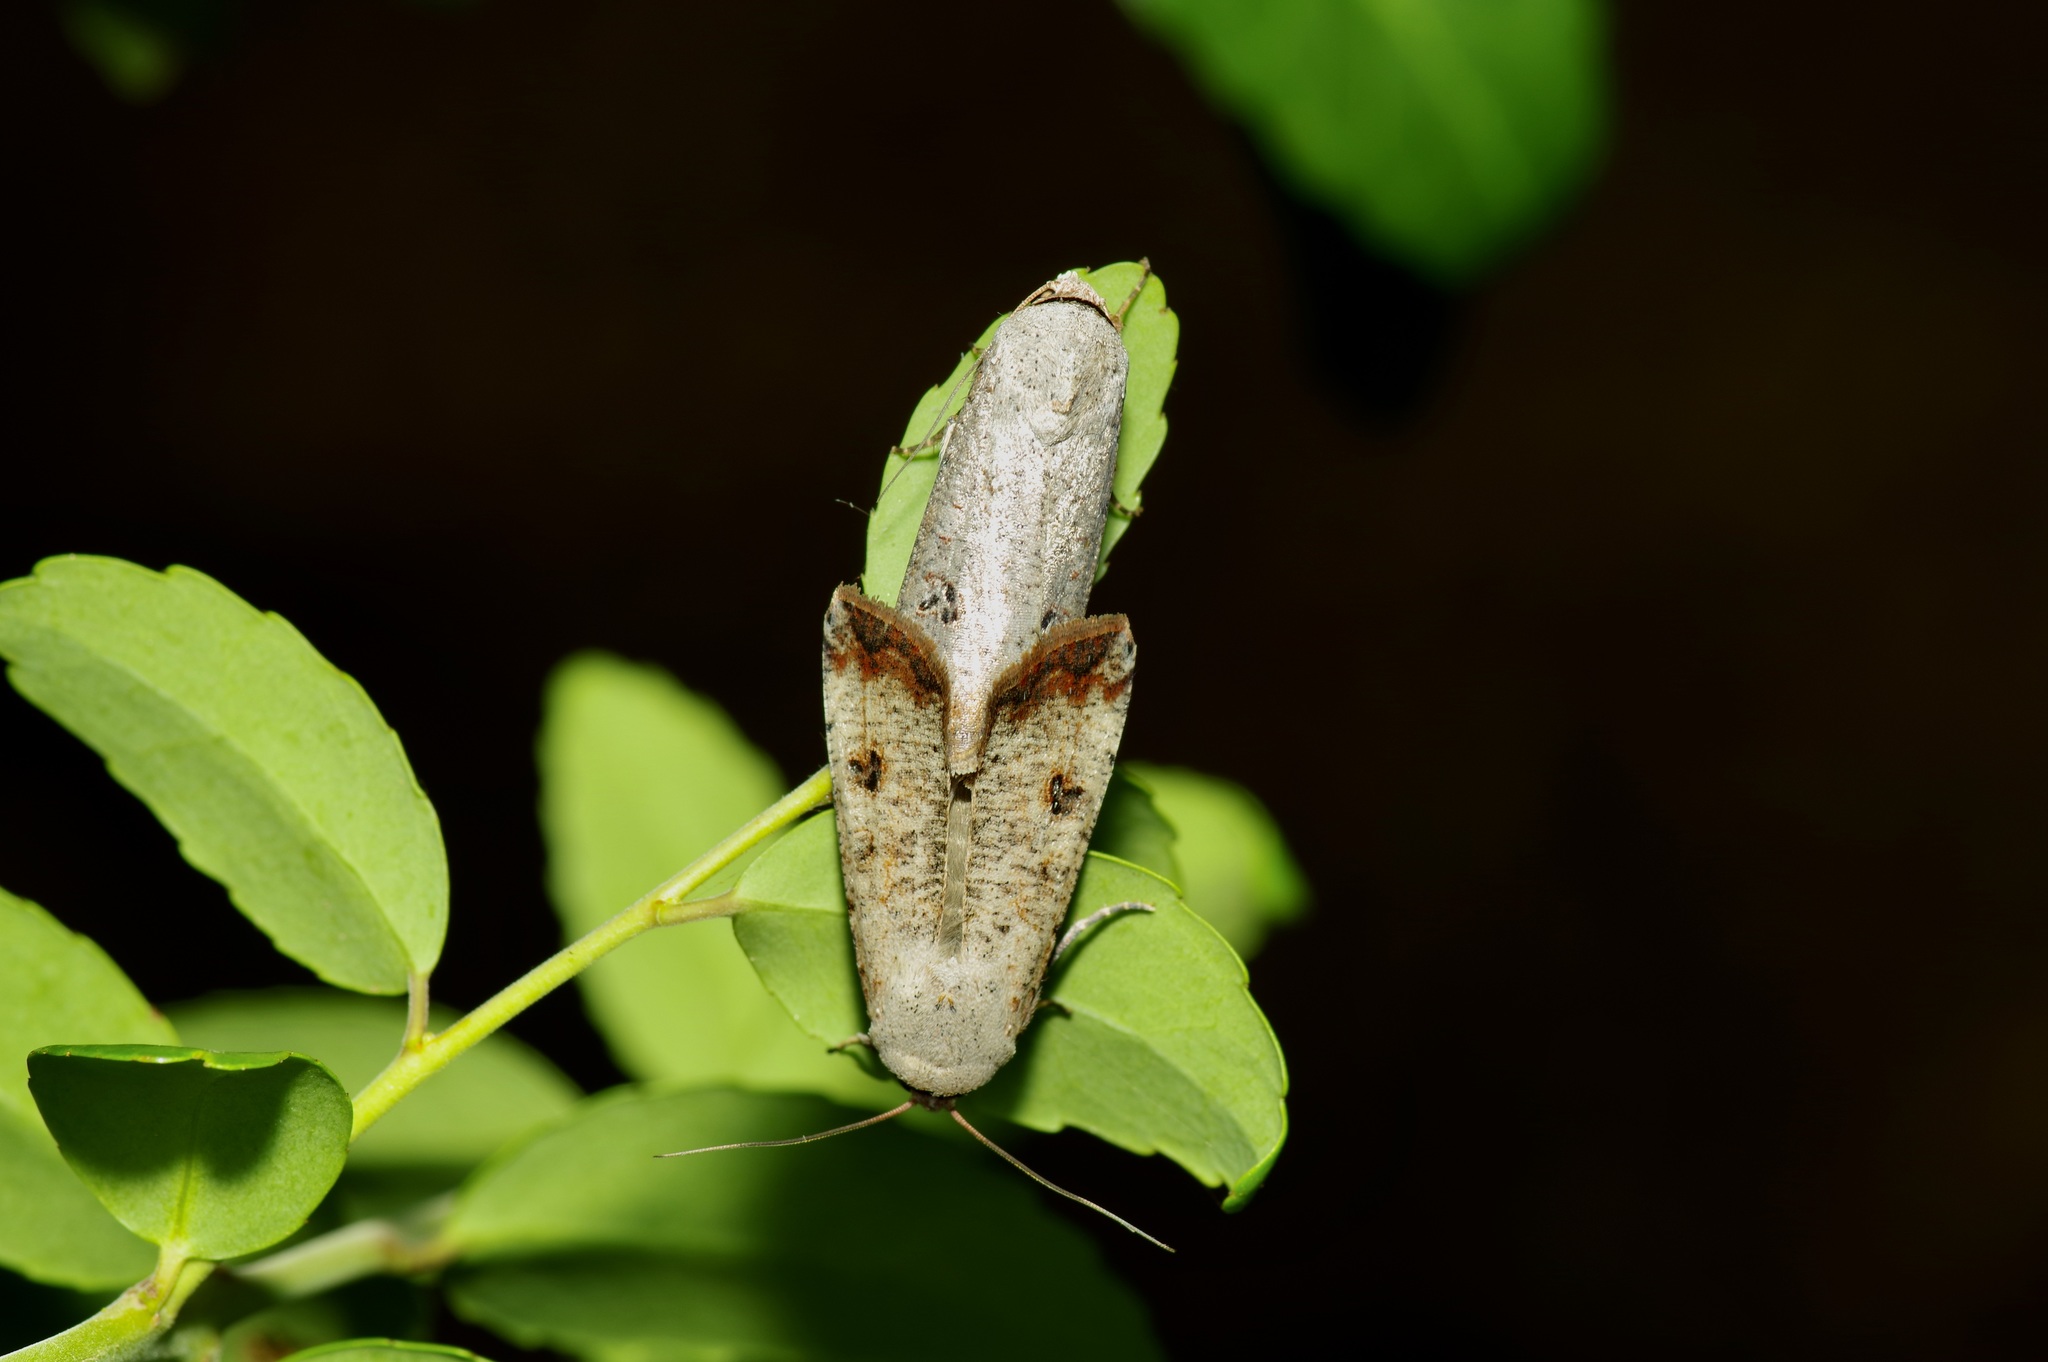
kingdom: Animalia
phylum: Arthropoda
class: Insecta
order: Lepidoptera
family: Noctuidae
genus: Anicla
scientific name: Anicla infecta
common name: Green cutworm
